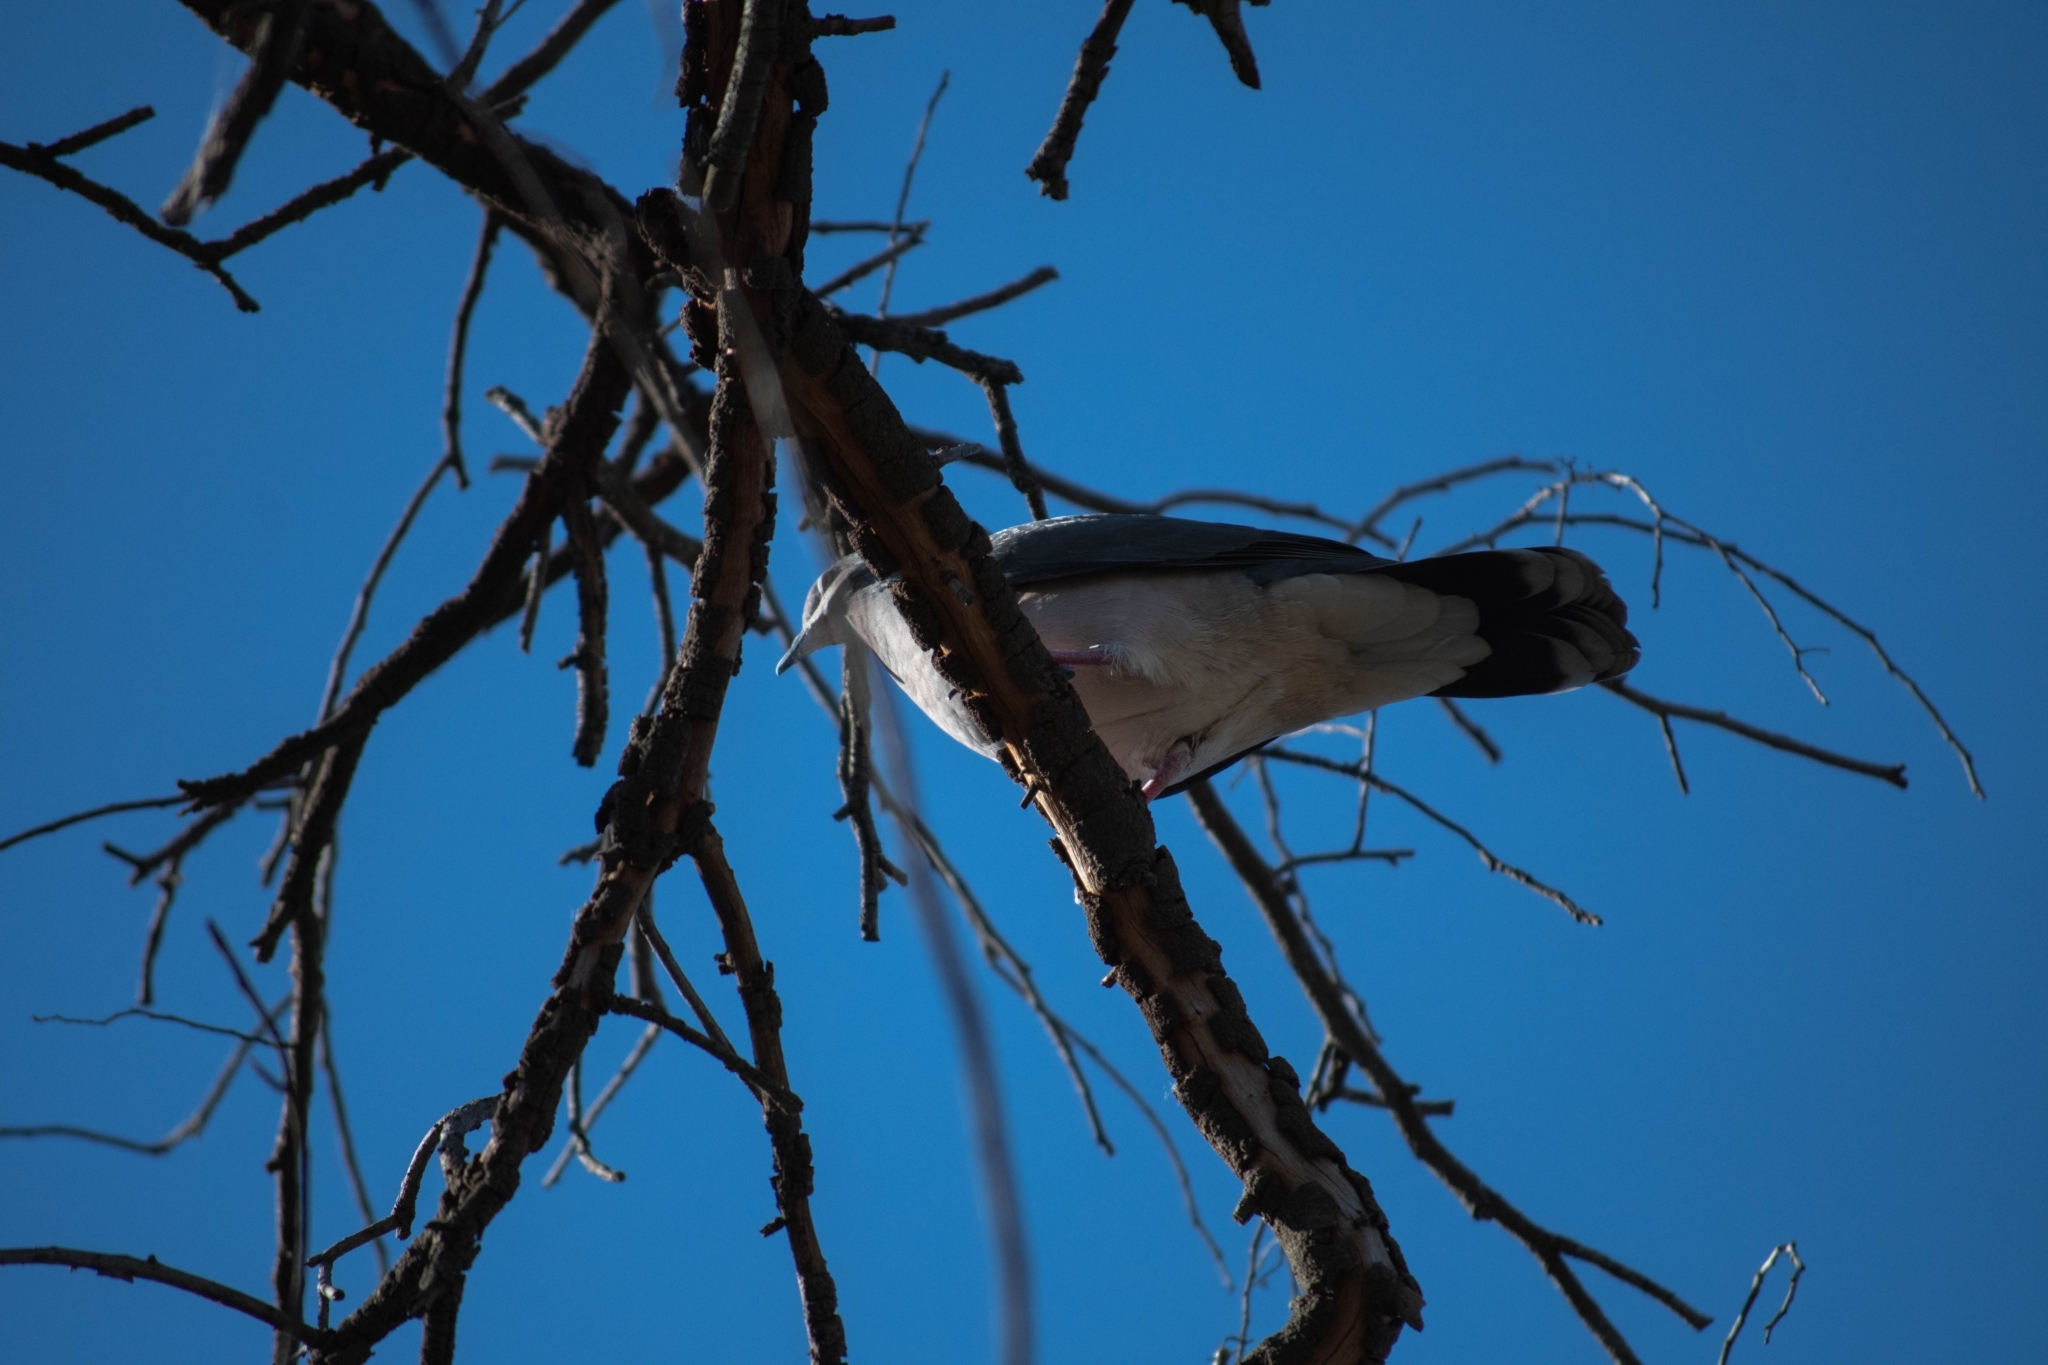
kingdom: Animalia
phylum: Chordata
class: Aves
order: Columbiformes
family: Columbidae
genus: Leptotila
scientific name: Leptotila verreauxi
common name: White-tipped dove
